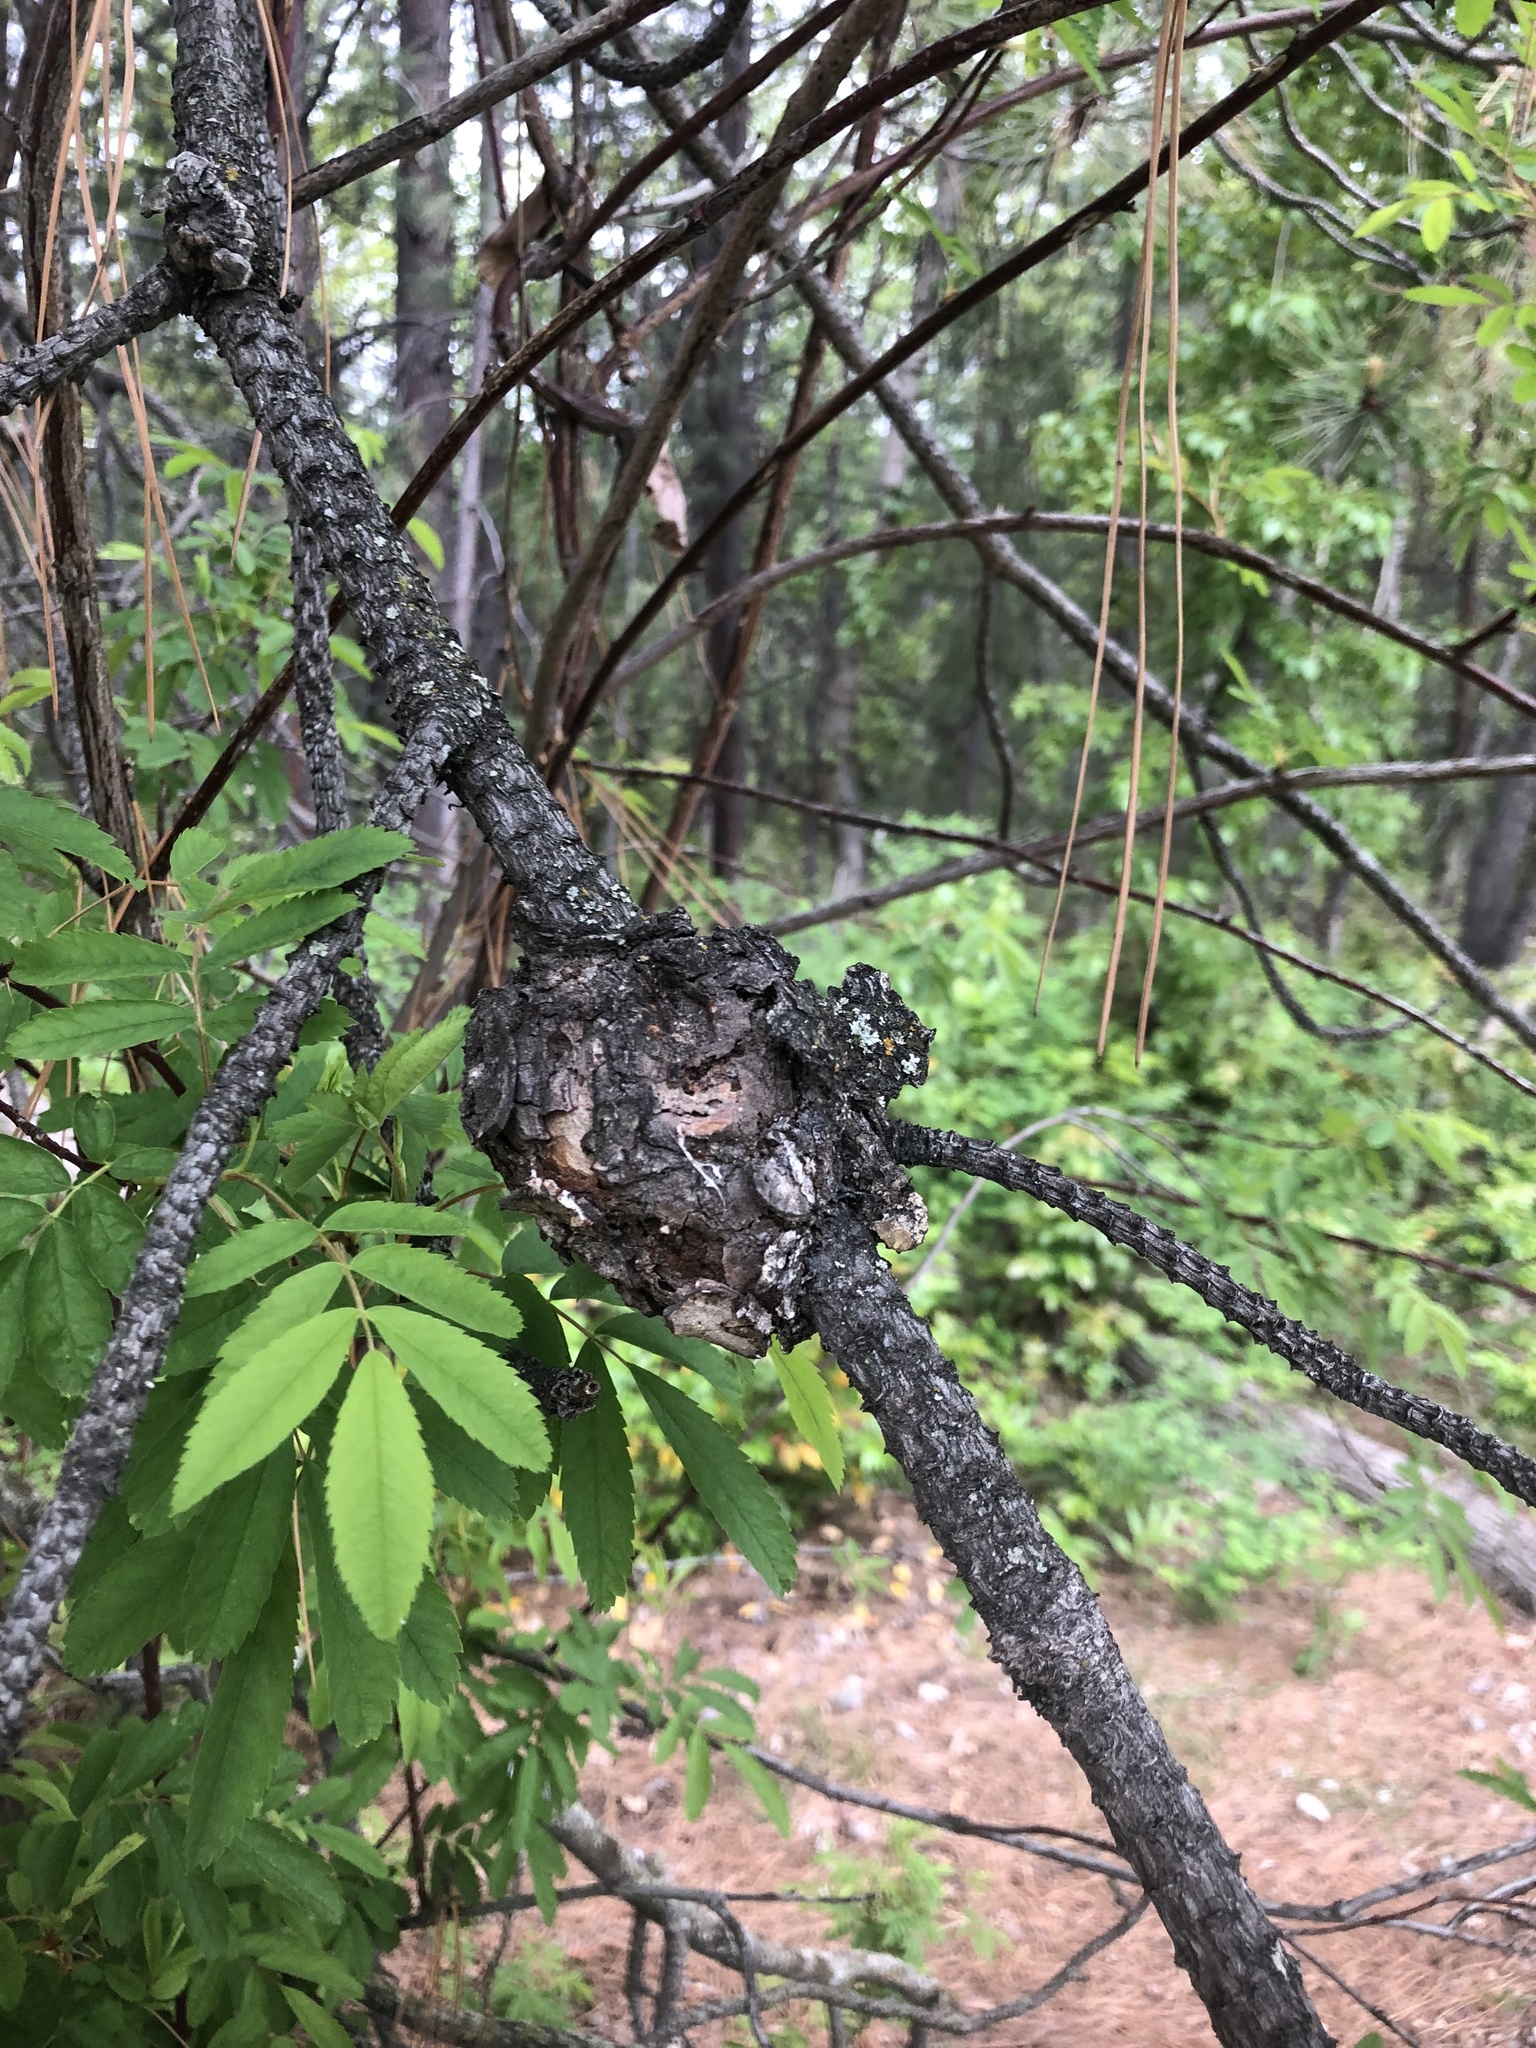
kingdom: Fungi
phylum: Basidiomycota
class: Pucciniomycetes
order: Pucciniales
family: Cronartiaceae
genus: Cronartium
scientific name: Cronartium harknessii
